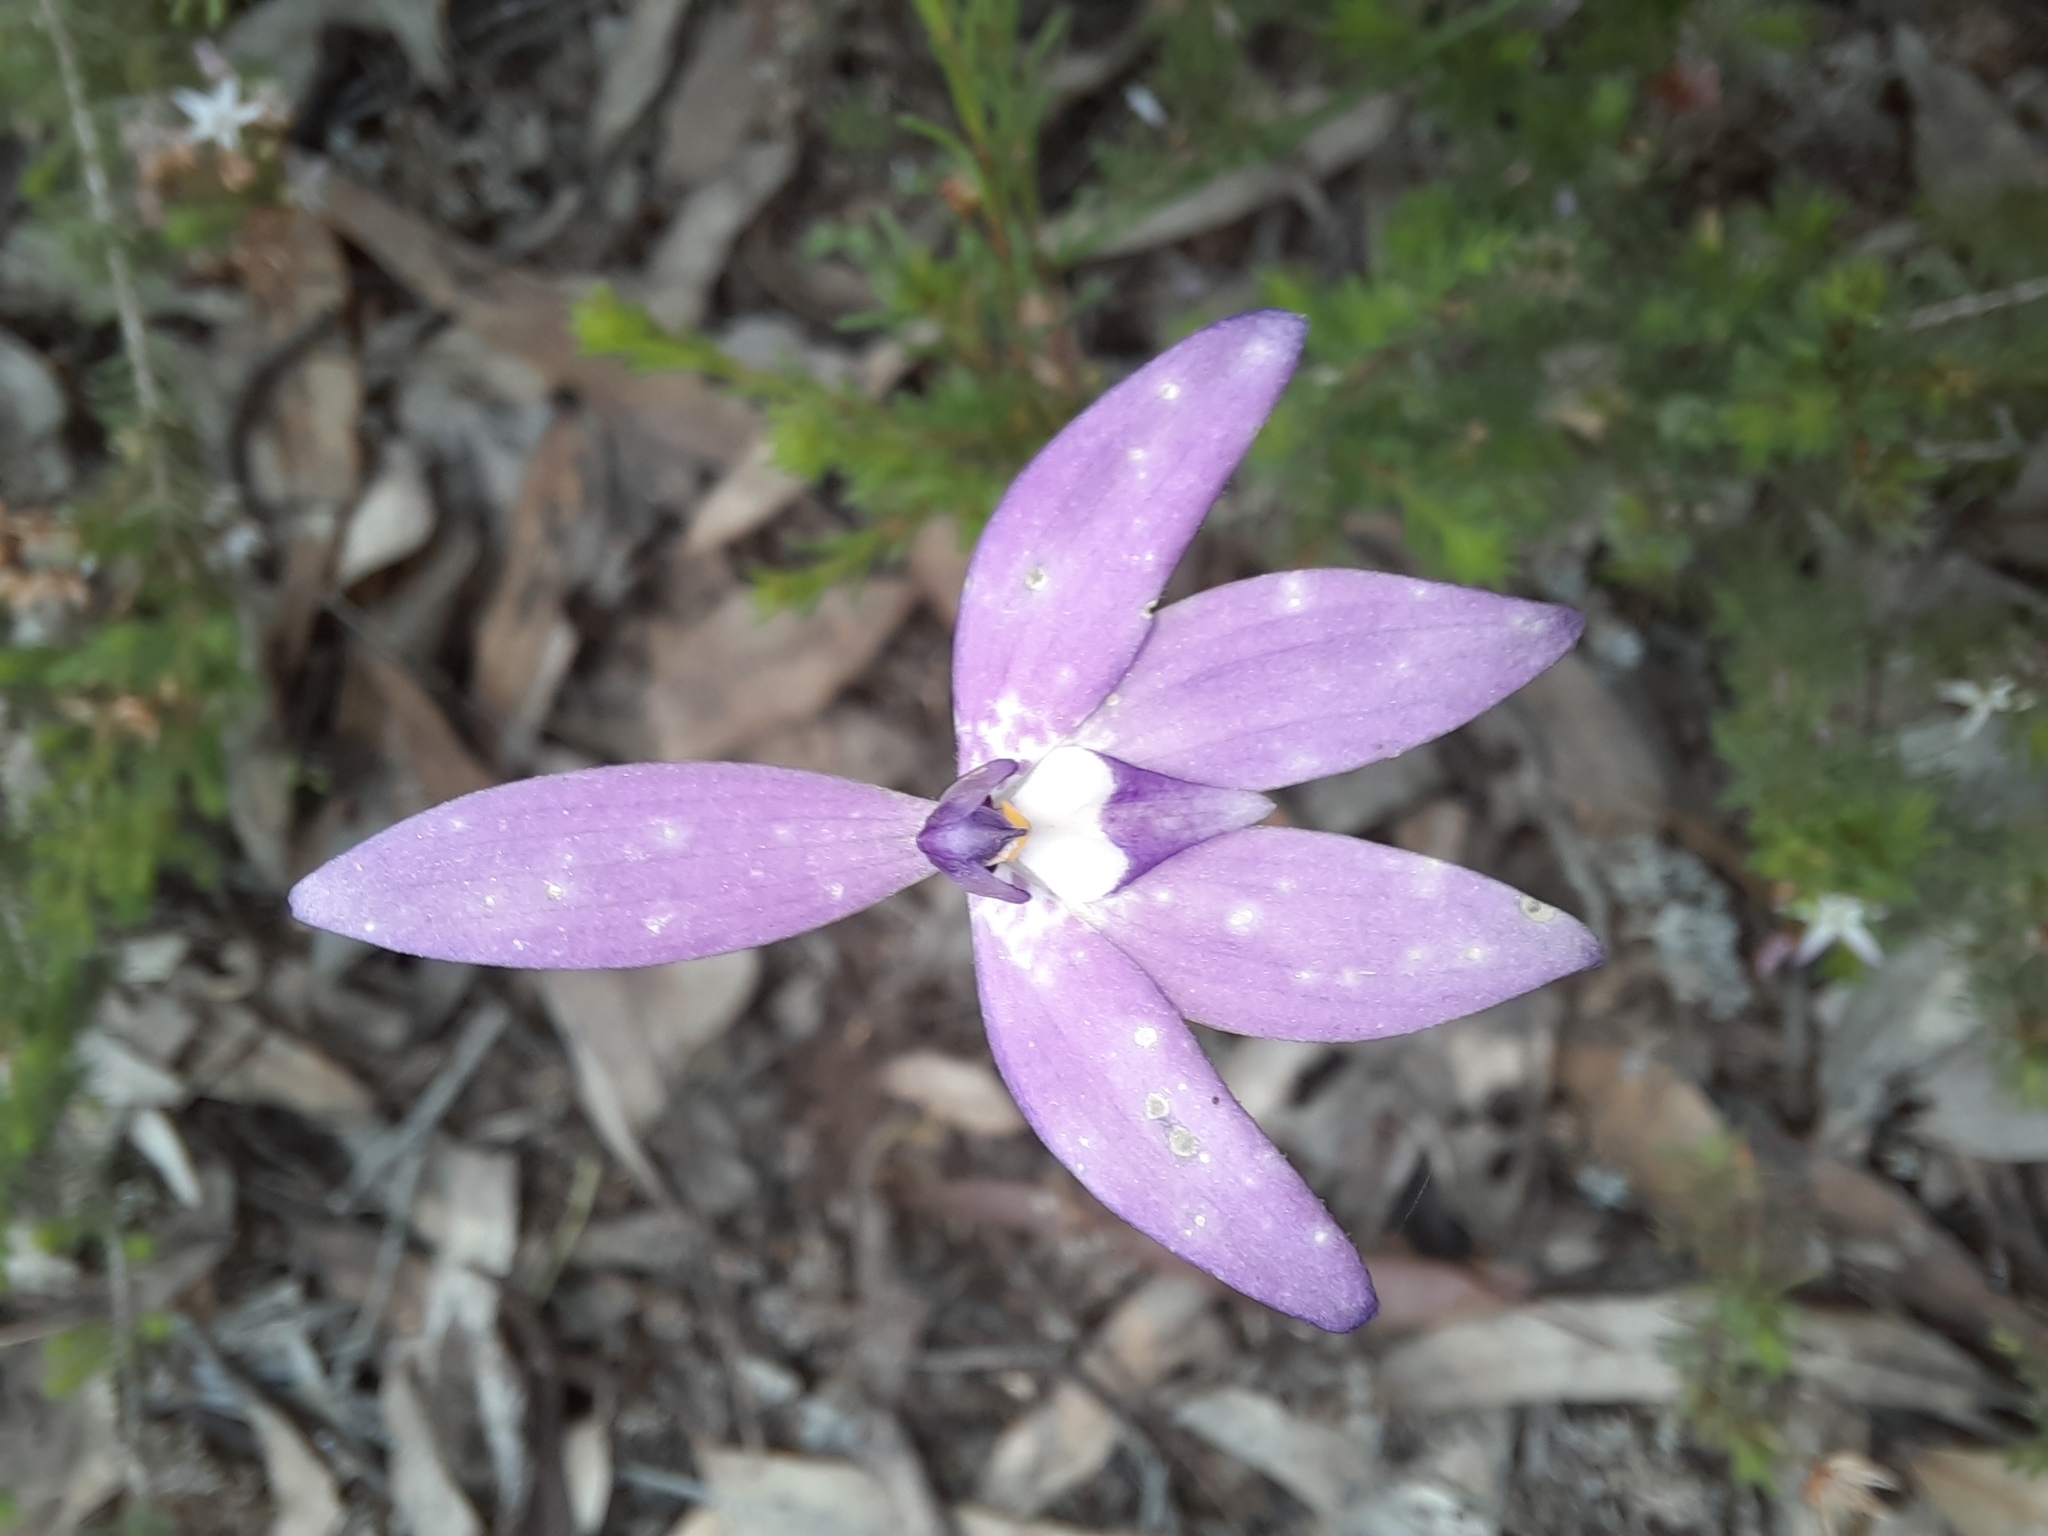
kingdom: Plantae
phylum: Tracheophyta
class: Liliopsida
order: Asparagales
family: Orchidaceae
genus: Caladenia
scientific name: Caladenia major
